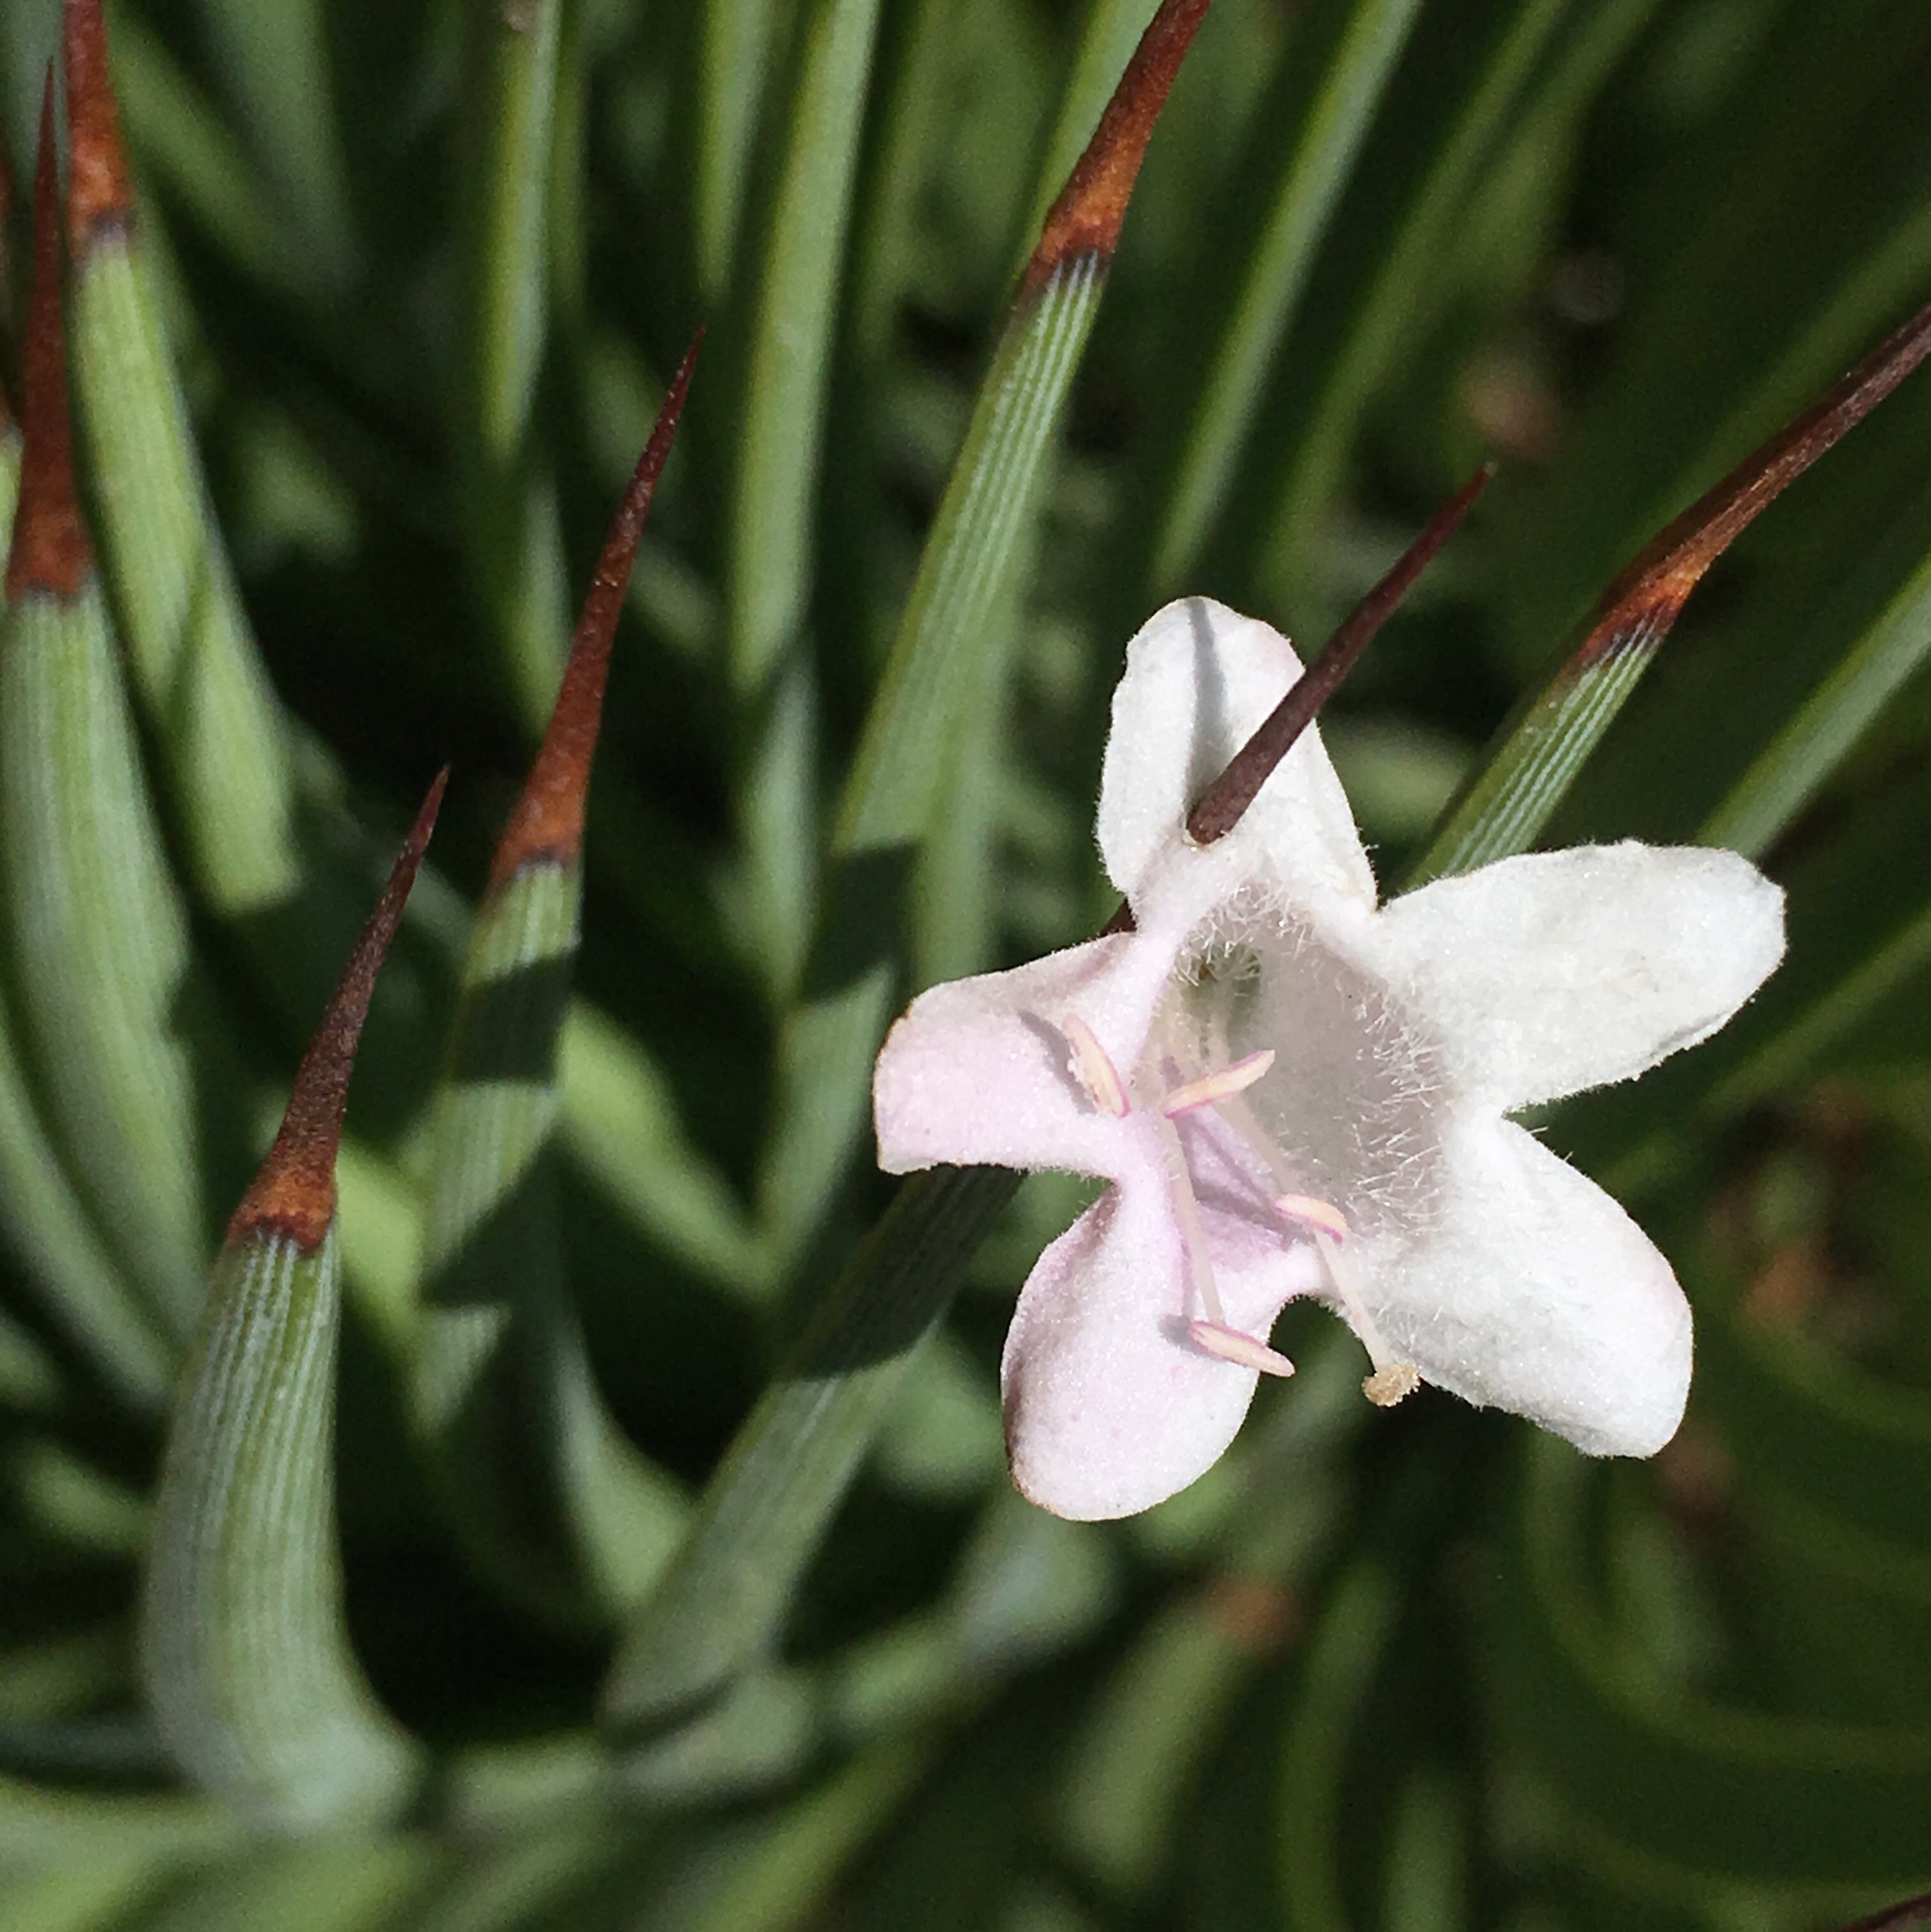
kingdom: Plantae
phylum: Tracheophyta
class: Liliopsida
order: Asparagales
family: Asparagaceae
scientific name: Asparagaceae
